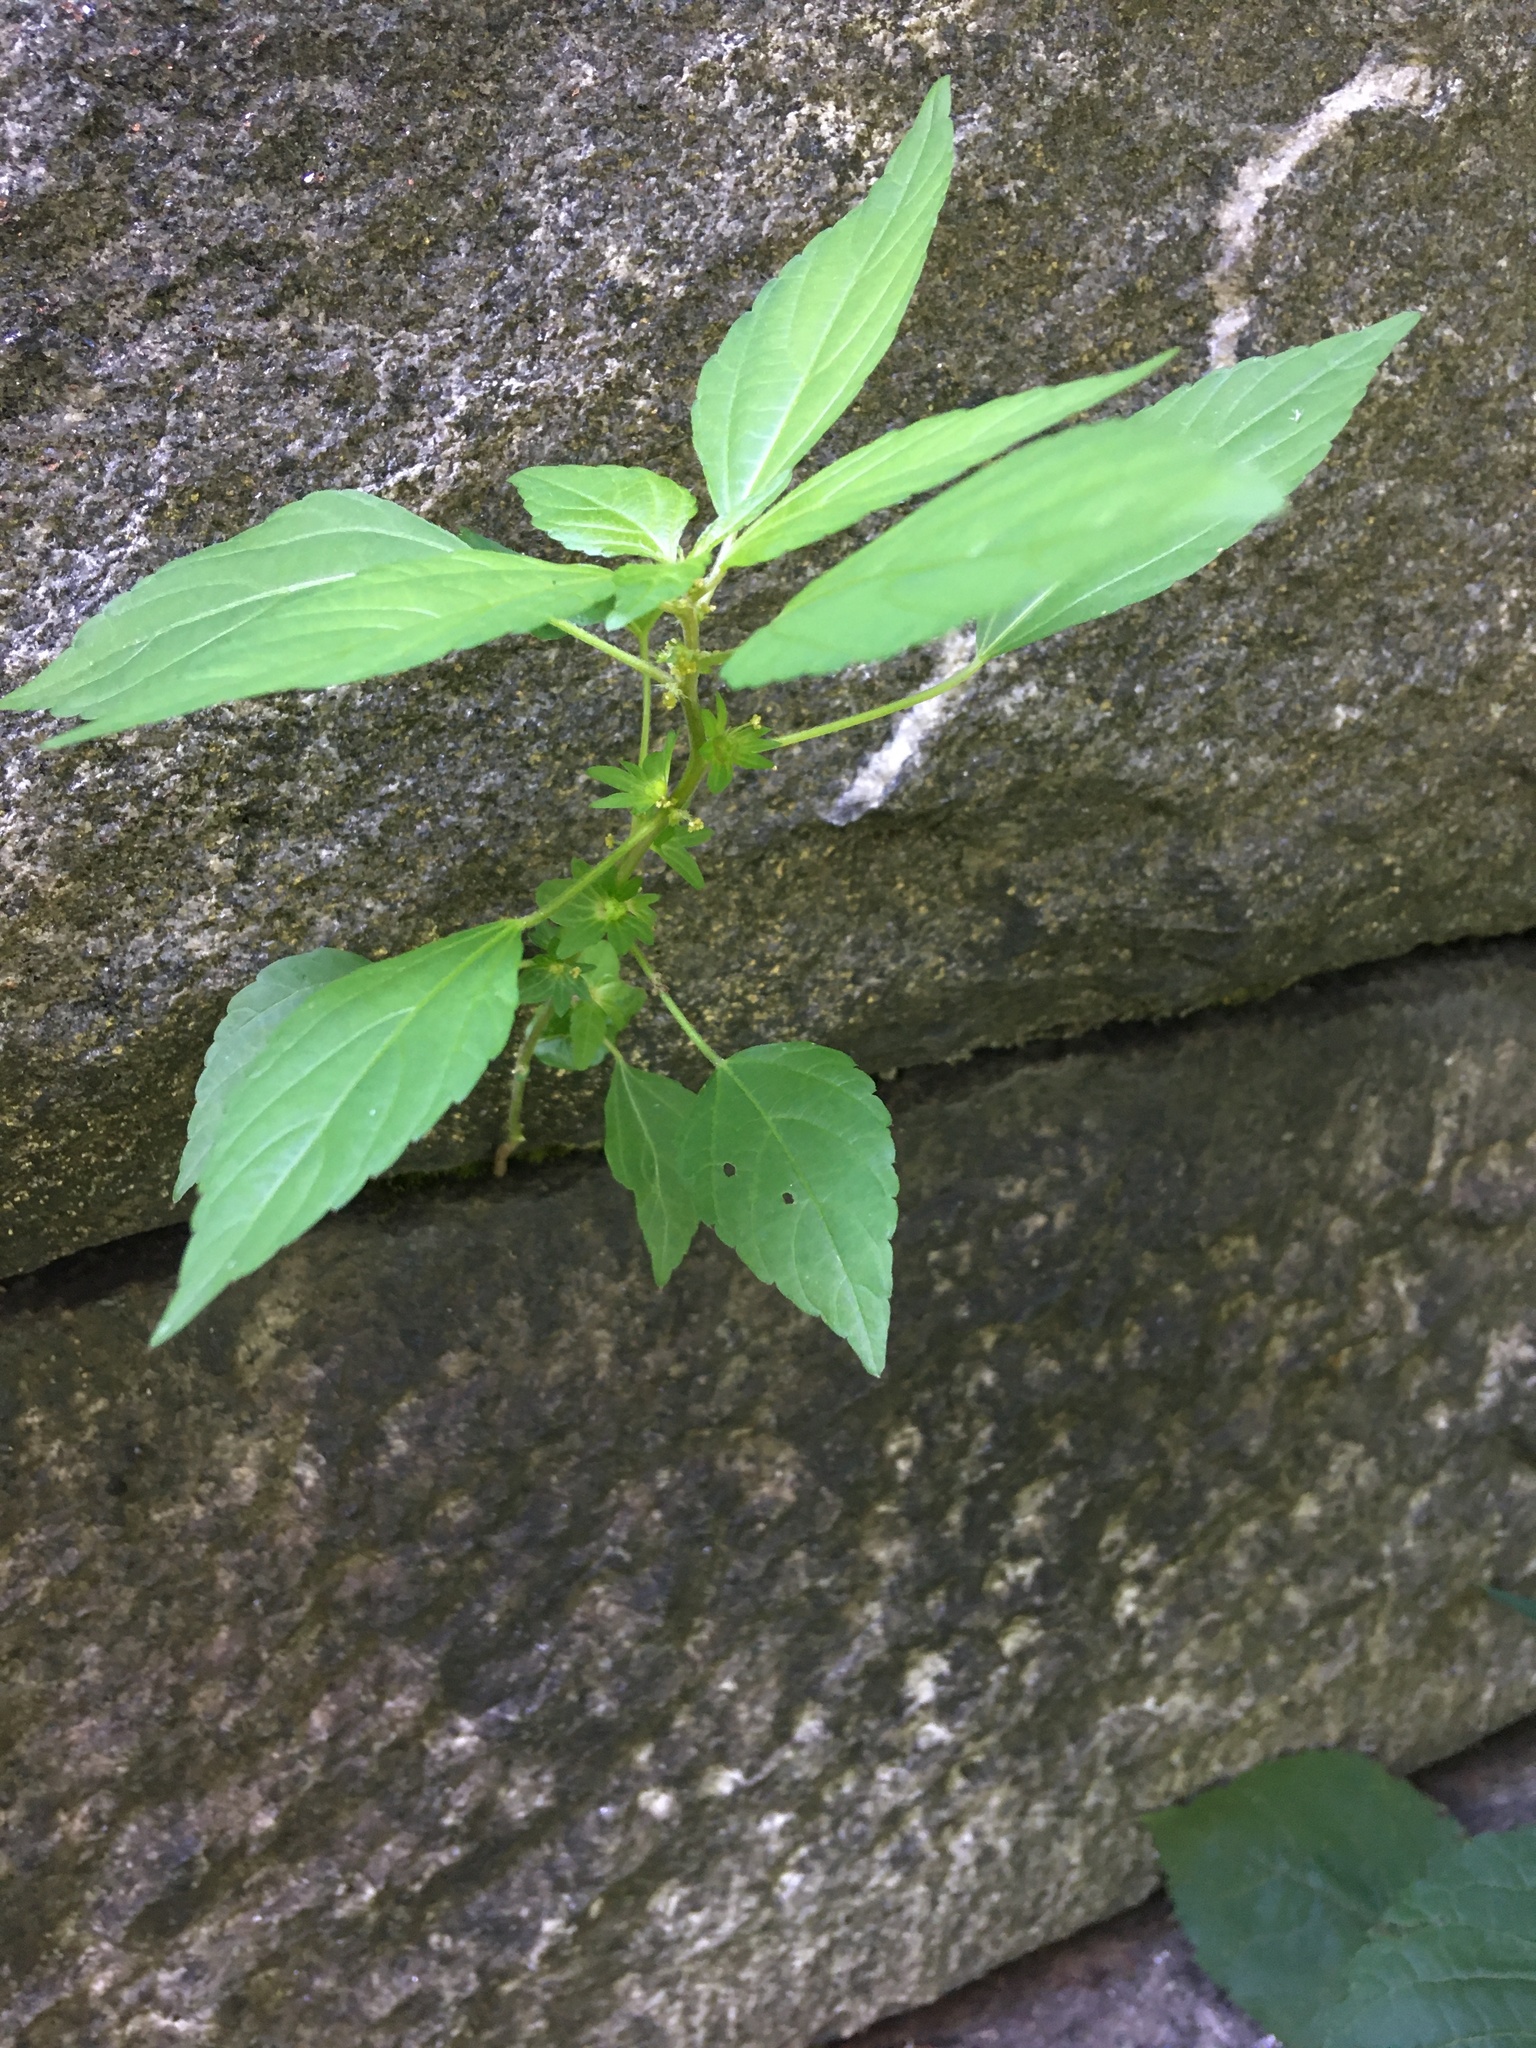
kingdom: Plantae
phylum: Tracheophyta
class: Magnoliopsida
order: Malpighiales
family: Euphorbiaceae
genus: Acalypha
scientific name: Acalypha rhomboidea
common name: Rhombic copperleaf
